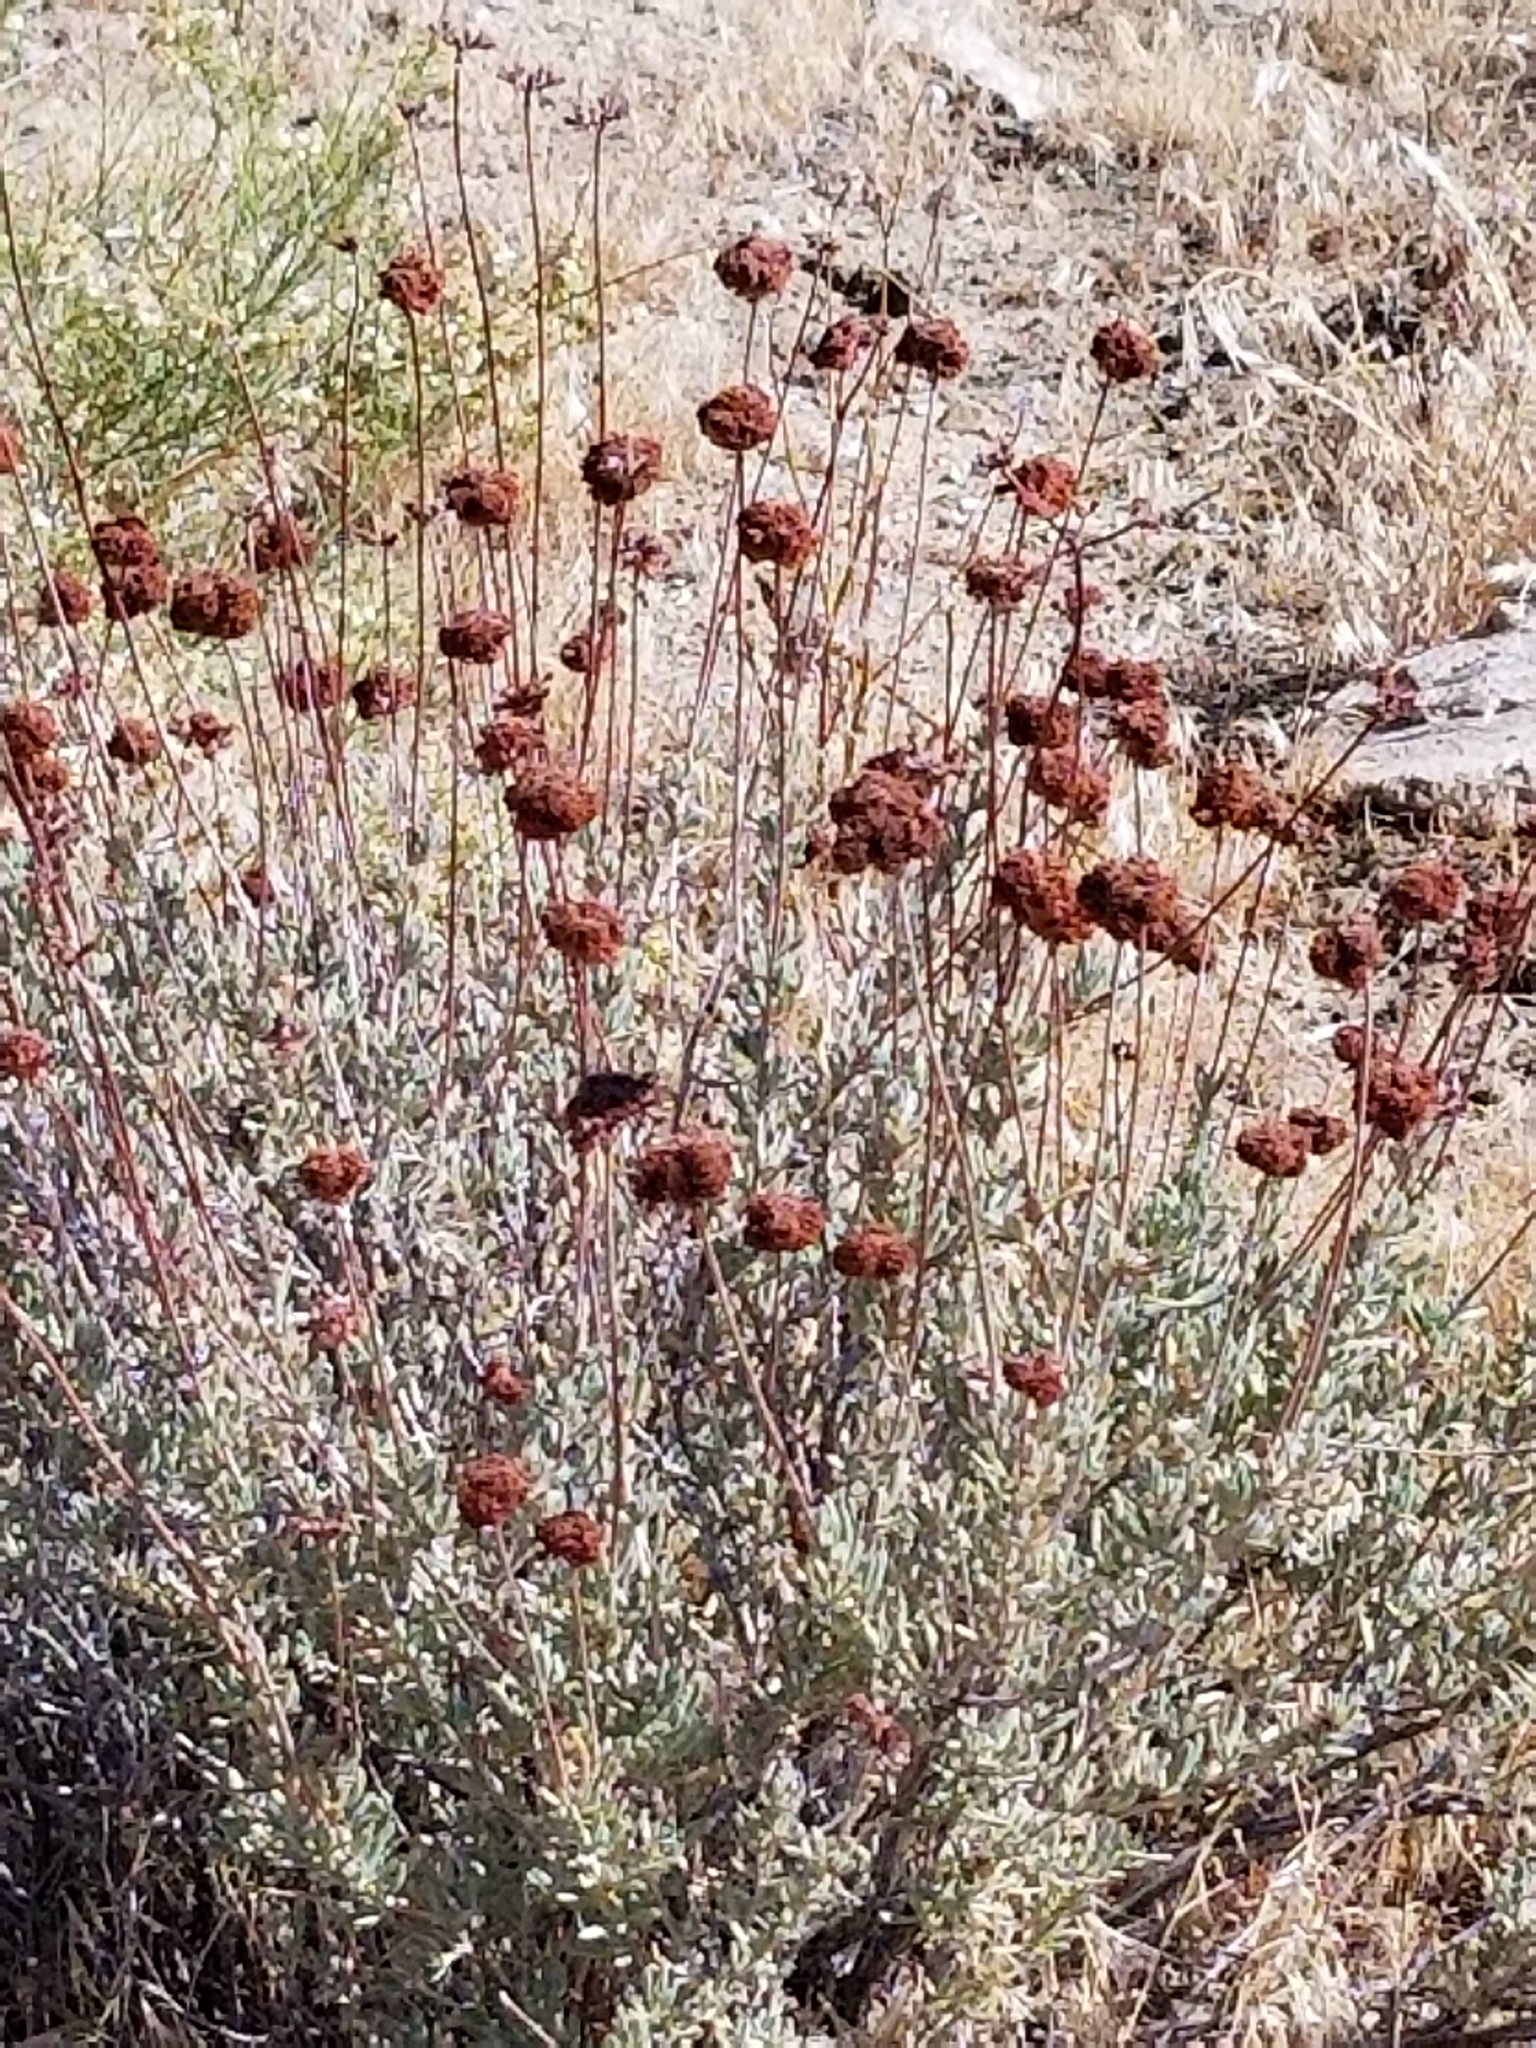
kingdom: Plantae
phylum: Tracheophyta
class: Magnoliopsida
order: Caryophyllales
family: Polygonaceae
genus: Eriogonum
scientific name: Eriogonum fasciculatum
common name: California wild buckwheat
